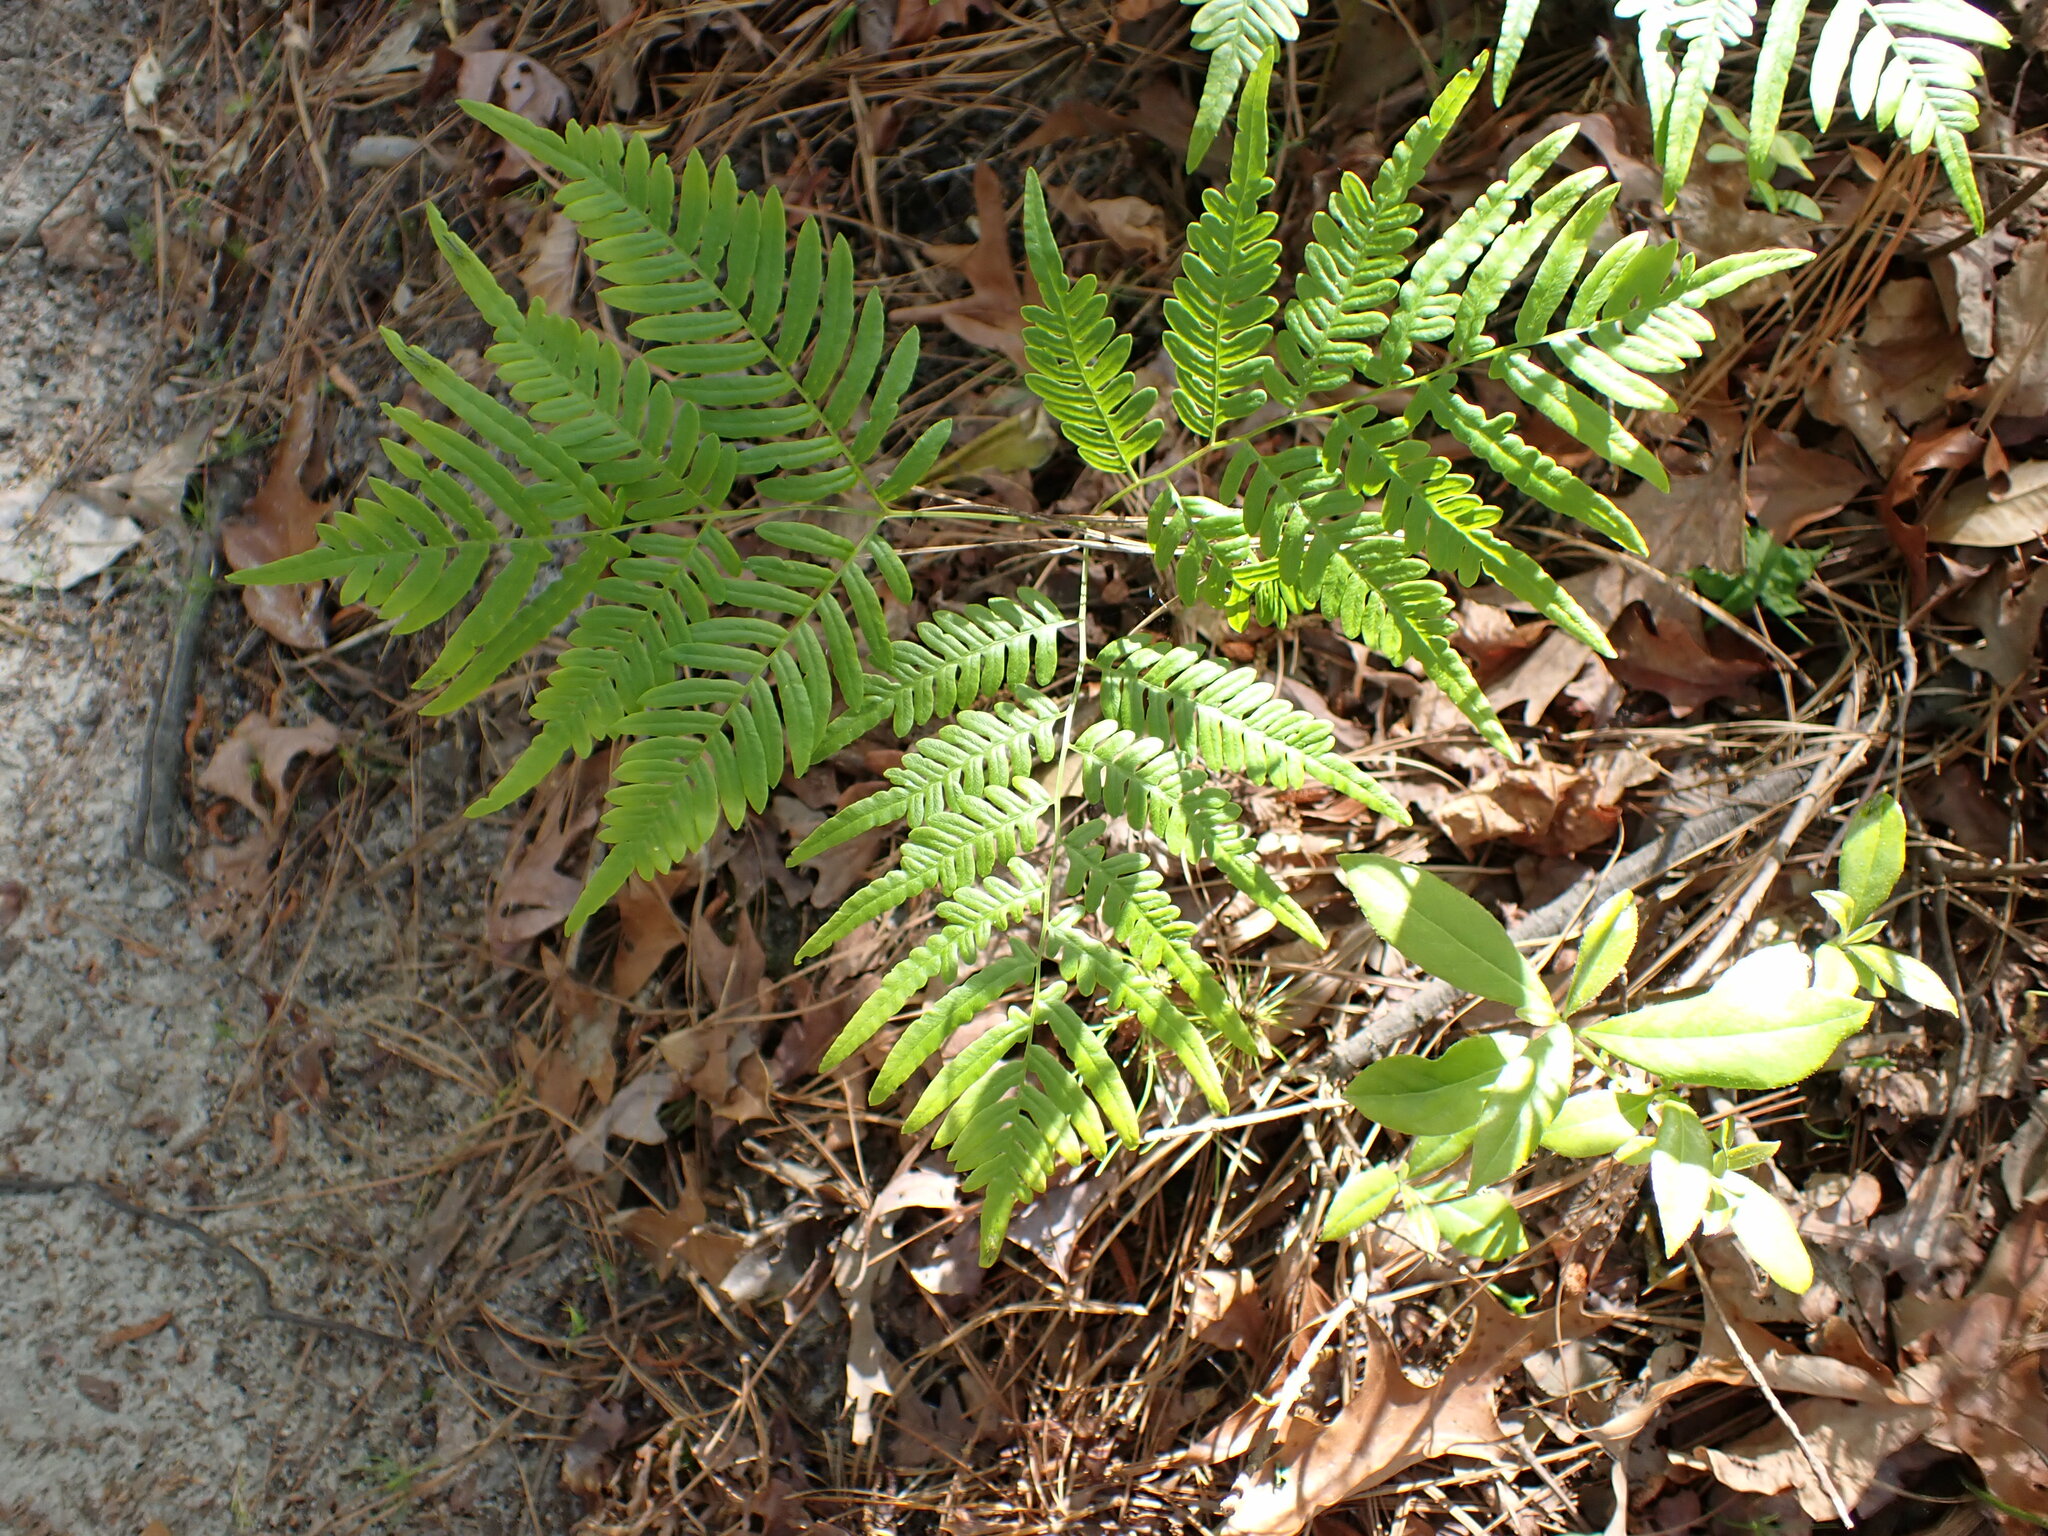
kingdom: Plantae
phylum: Tracheophyta
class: Polypodiopsida
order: Polypodiales
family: Dennstaedtiaceae
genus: Pteridium
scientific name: Pteridium aquilinum
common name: Bracken
